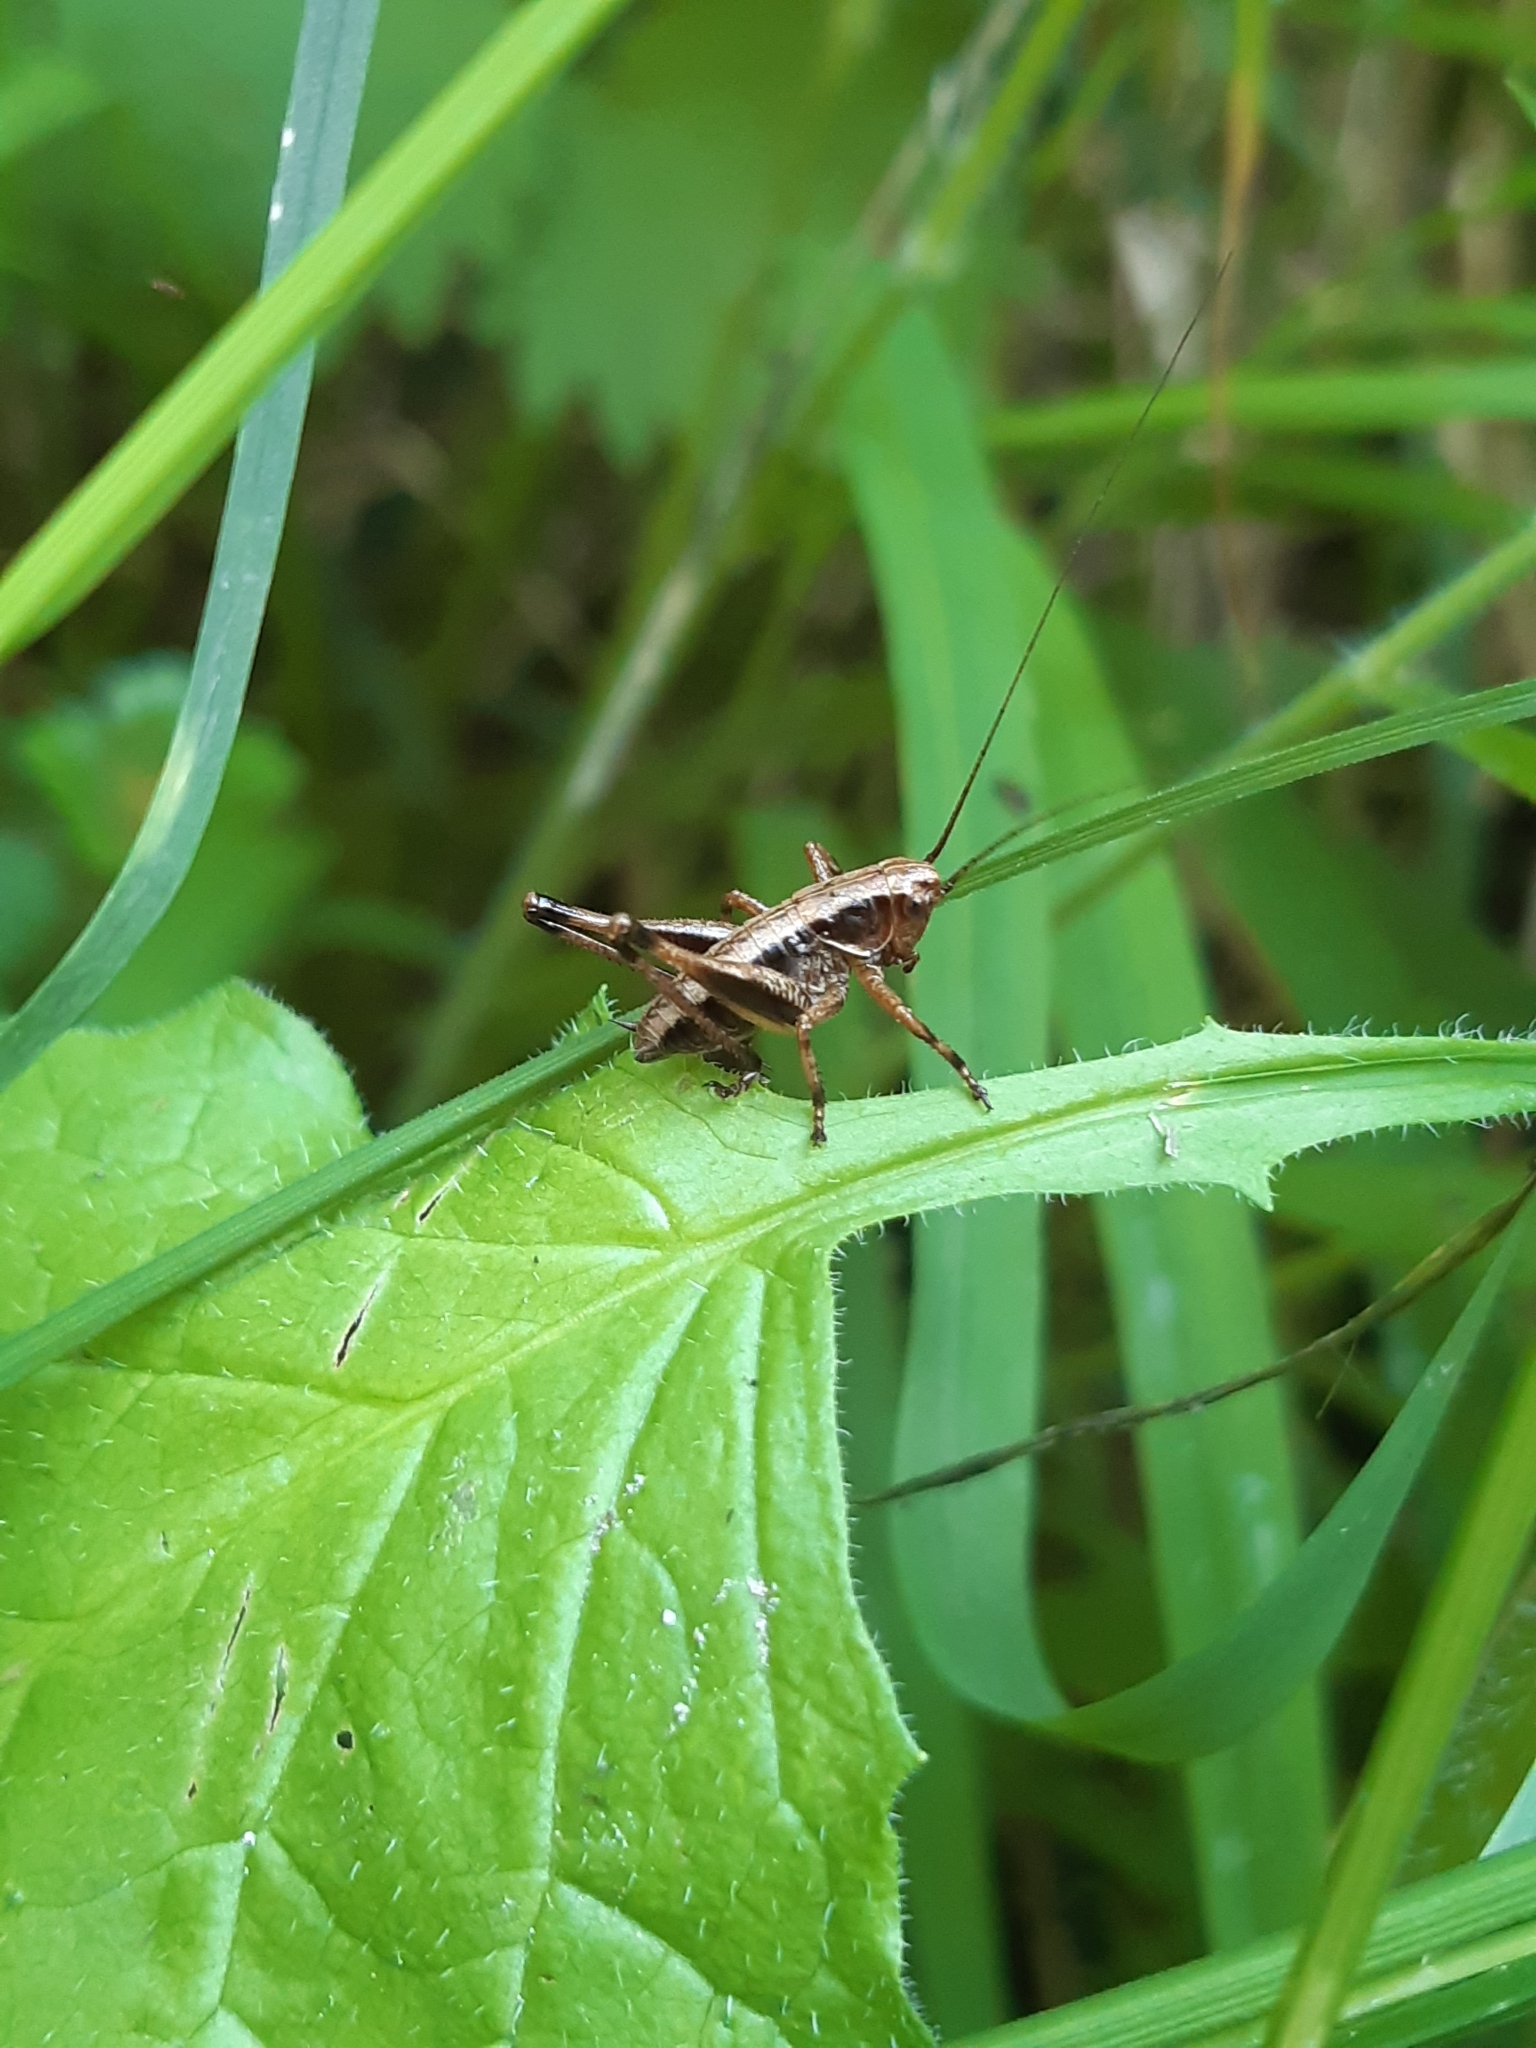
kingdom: Animalia
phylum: Arthropoda
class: Insecta
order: Orthoptera
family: Tettigoniidae
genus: Pholidoptera
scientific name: Pholidoptera griseoaptera
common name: Dark bush-cricket
